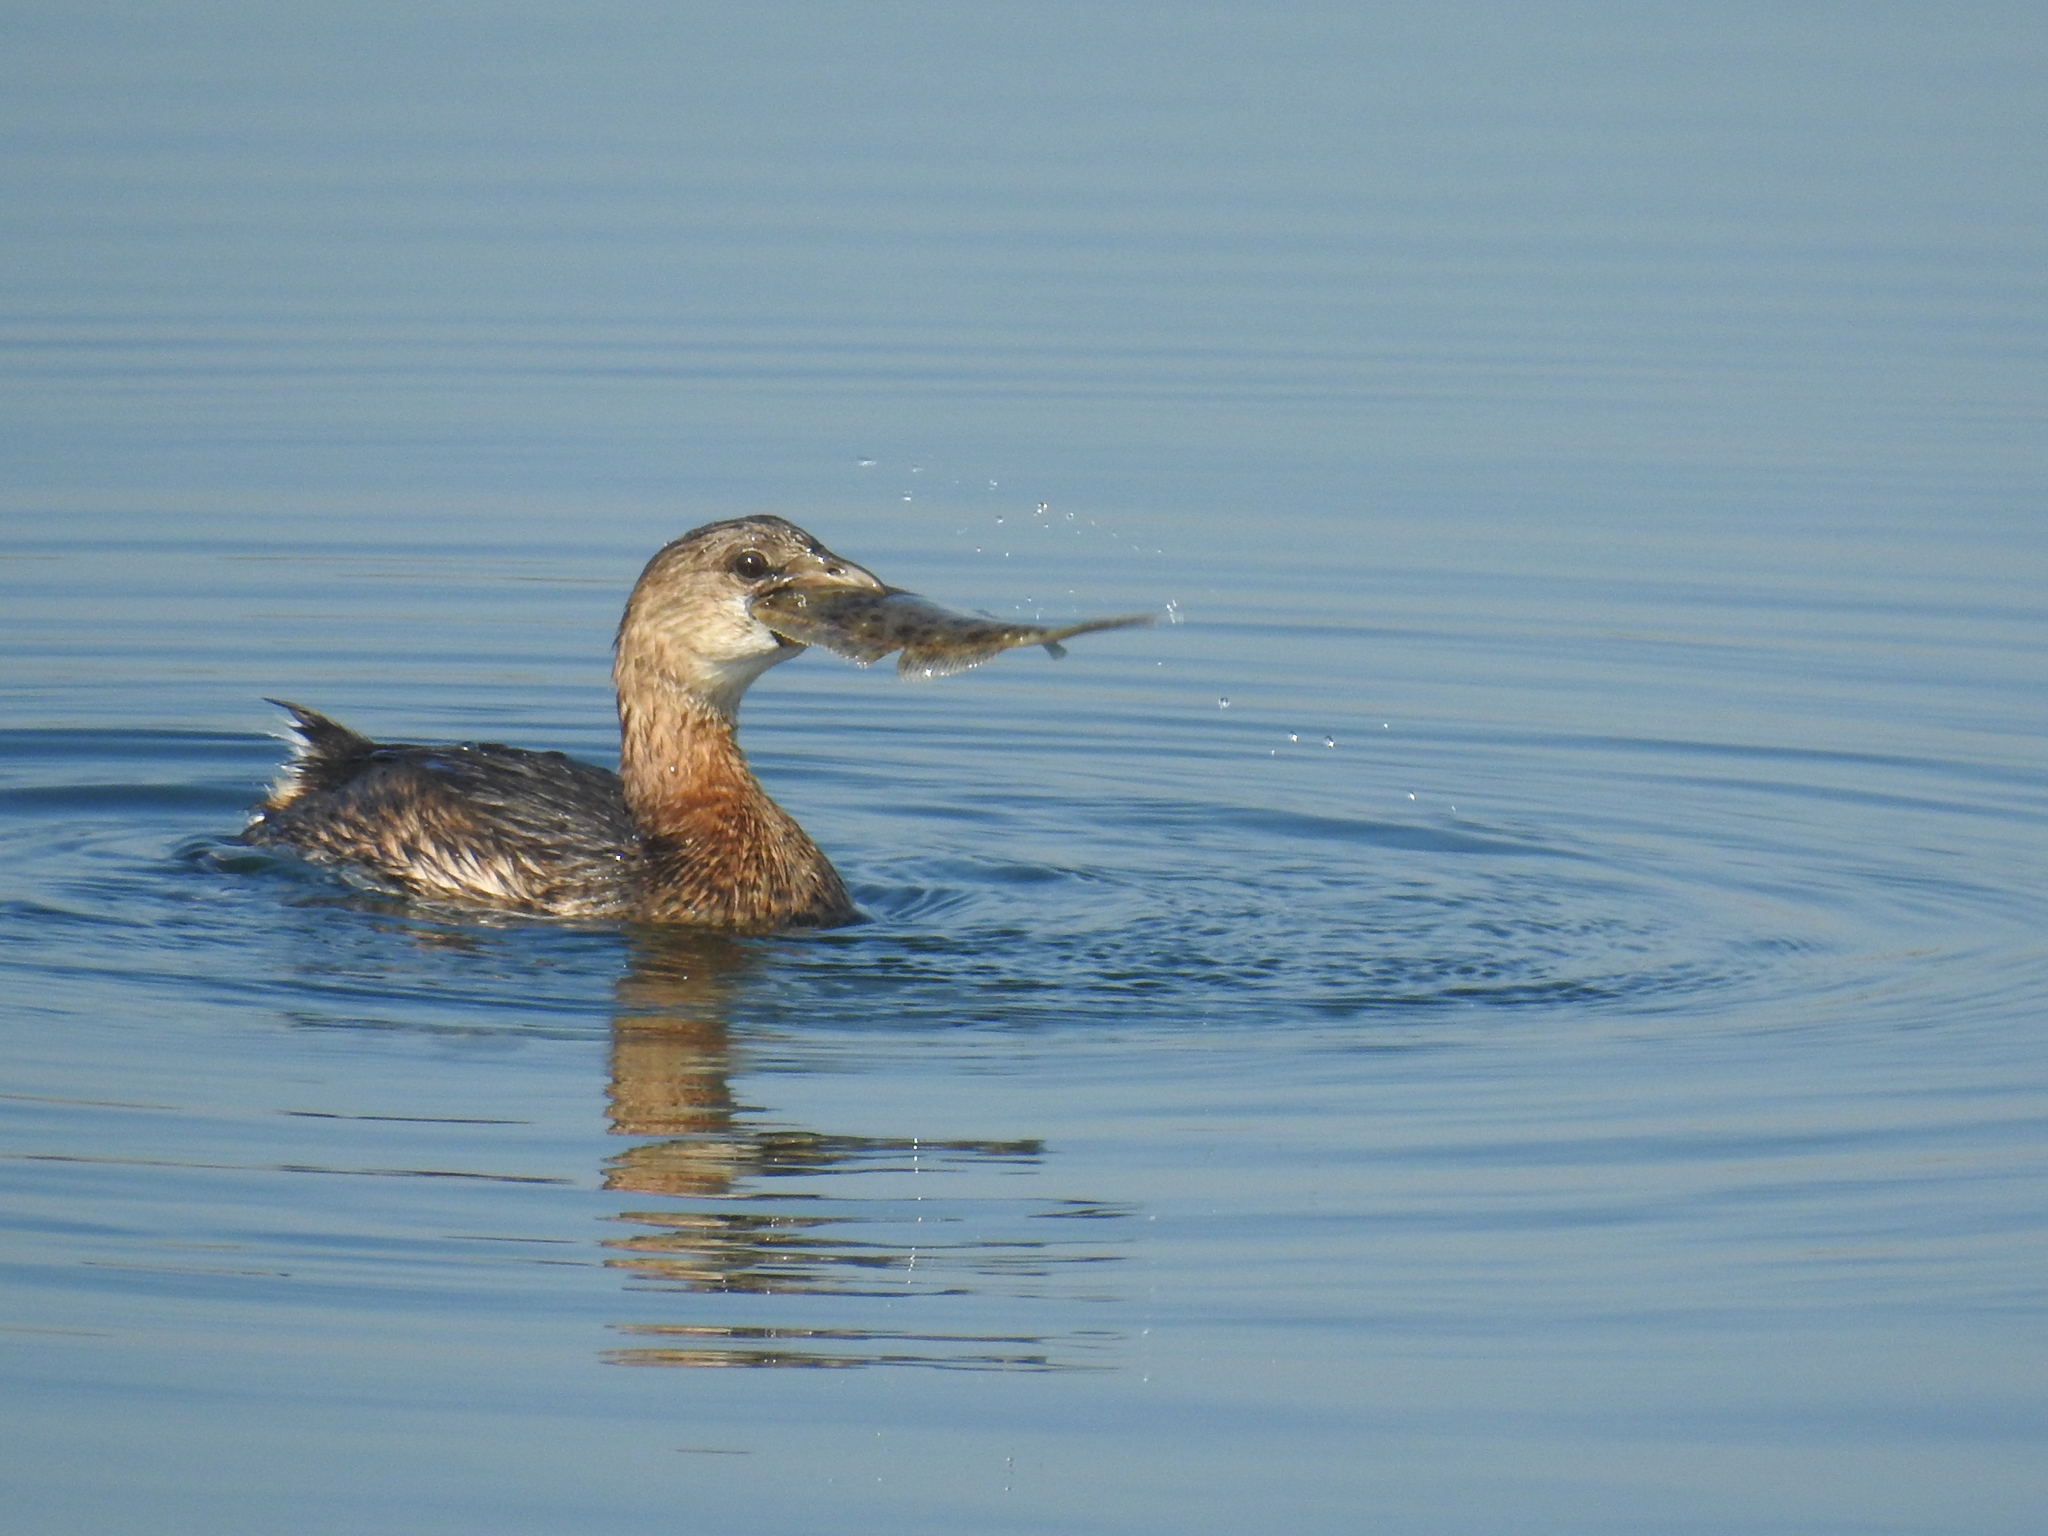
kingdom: Animalia
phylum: Chordata
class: Aves
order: Podicipediformes
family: Podicipedidae
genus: Podilymbus
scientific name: Podilymbus podiceps
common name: Pied-billed grebe
